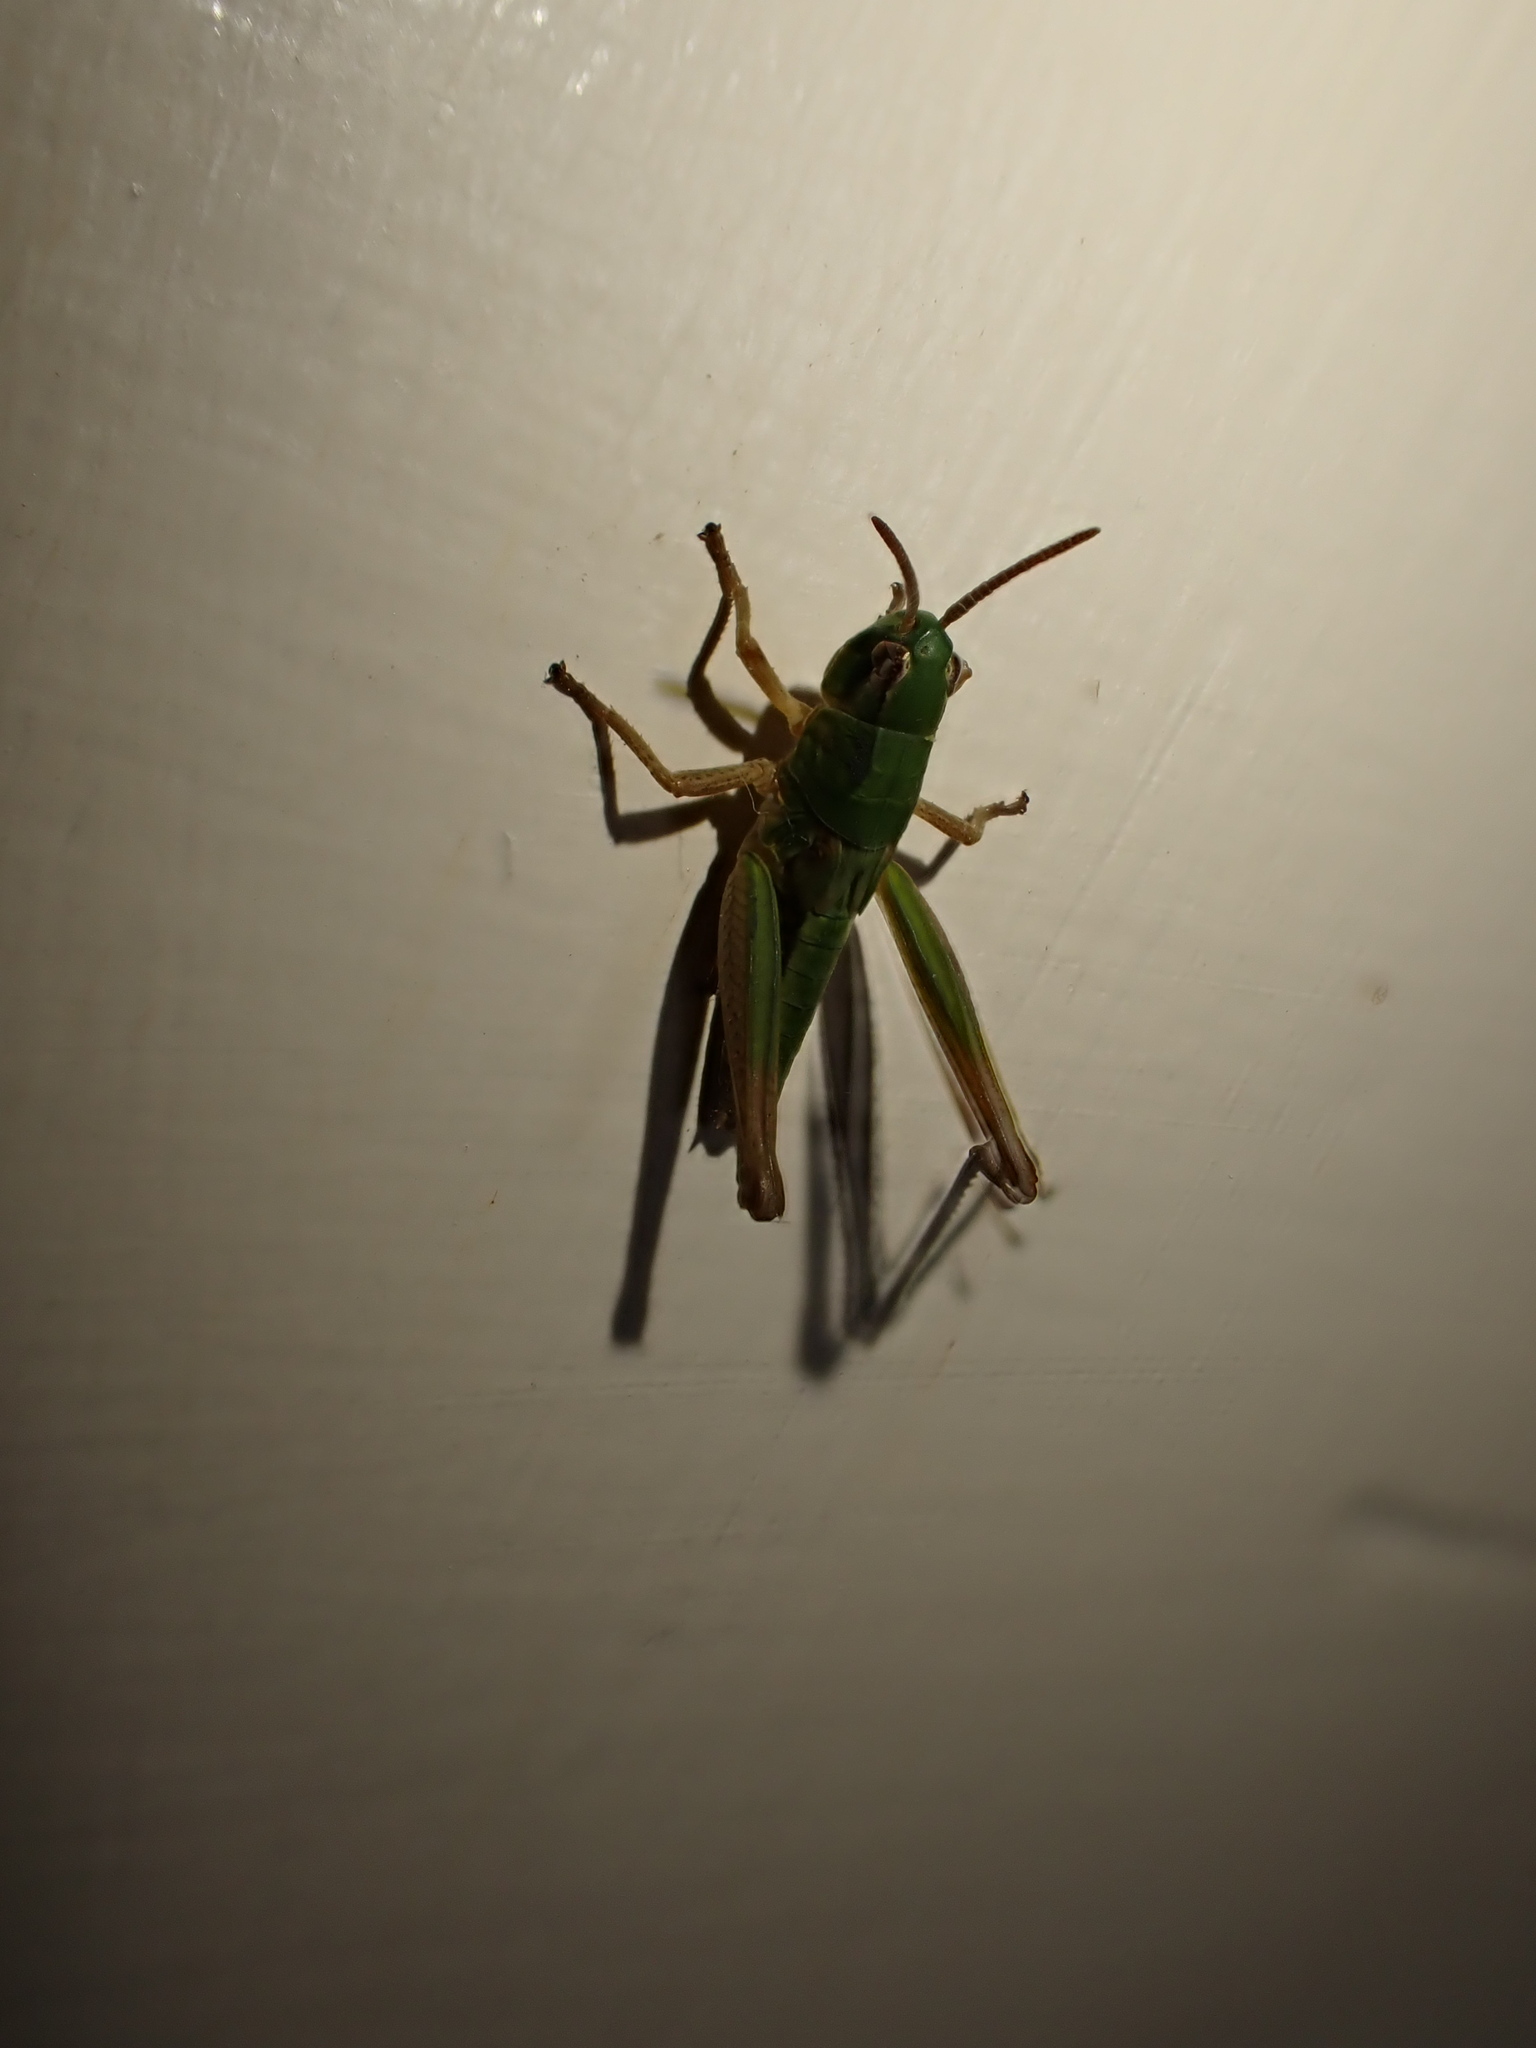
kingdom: Animalia
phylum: Arthropoda
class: Insecta
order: Orthoptera
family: Acrididae
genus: Pseudochorthippus
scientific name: Pseudochorthippus parallelus
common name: Meadow grasshopper
